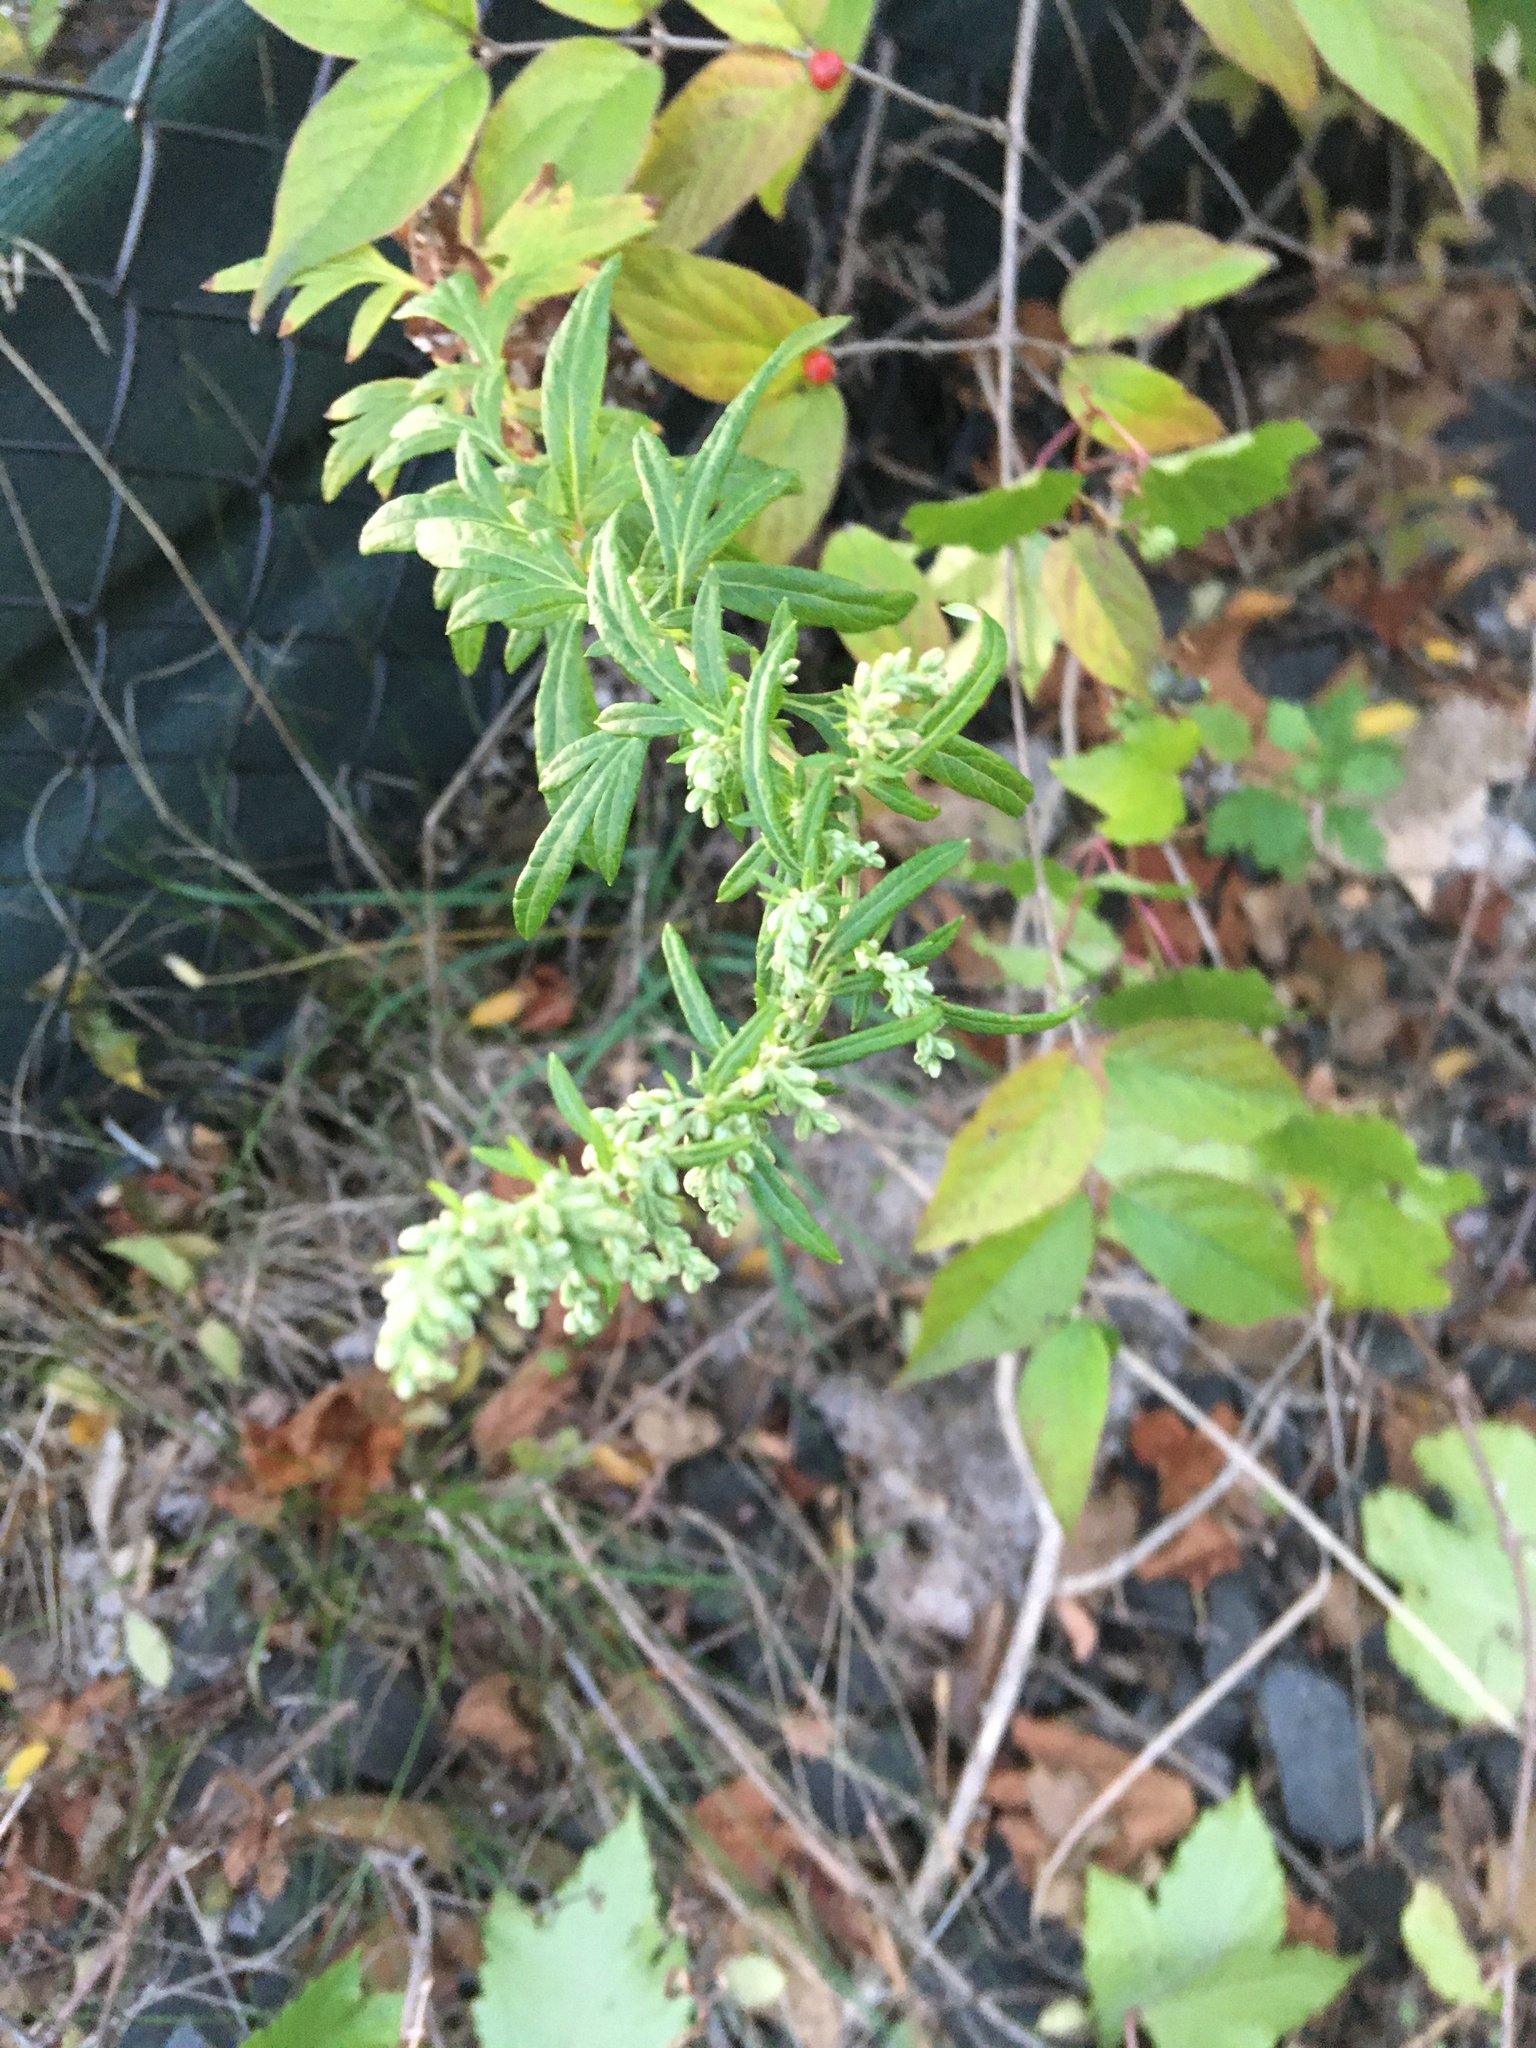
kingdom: Plantae
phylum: Tracheophyta
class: Magnoliopsida
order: Asterales
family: Asteraceae
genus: Artemisia
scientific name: Artemisia vulgaris
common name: Mugwort
